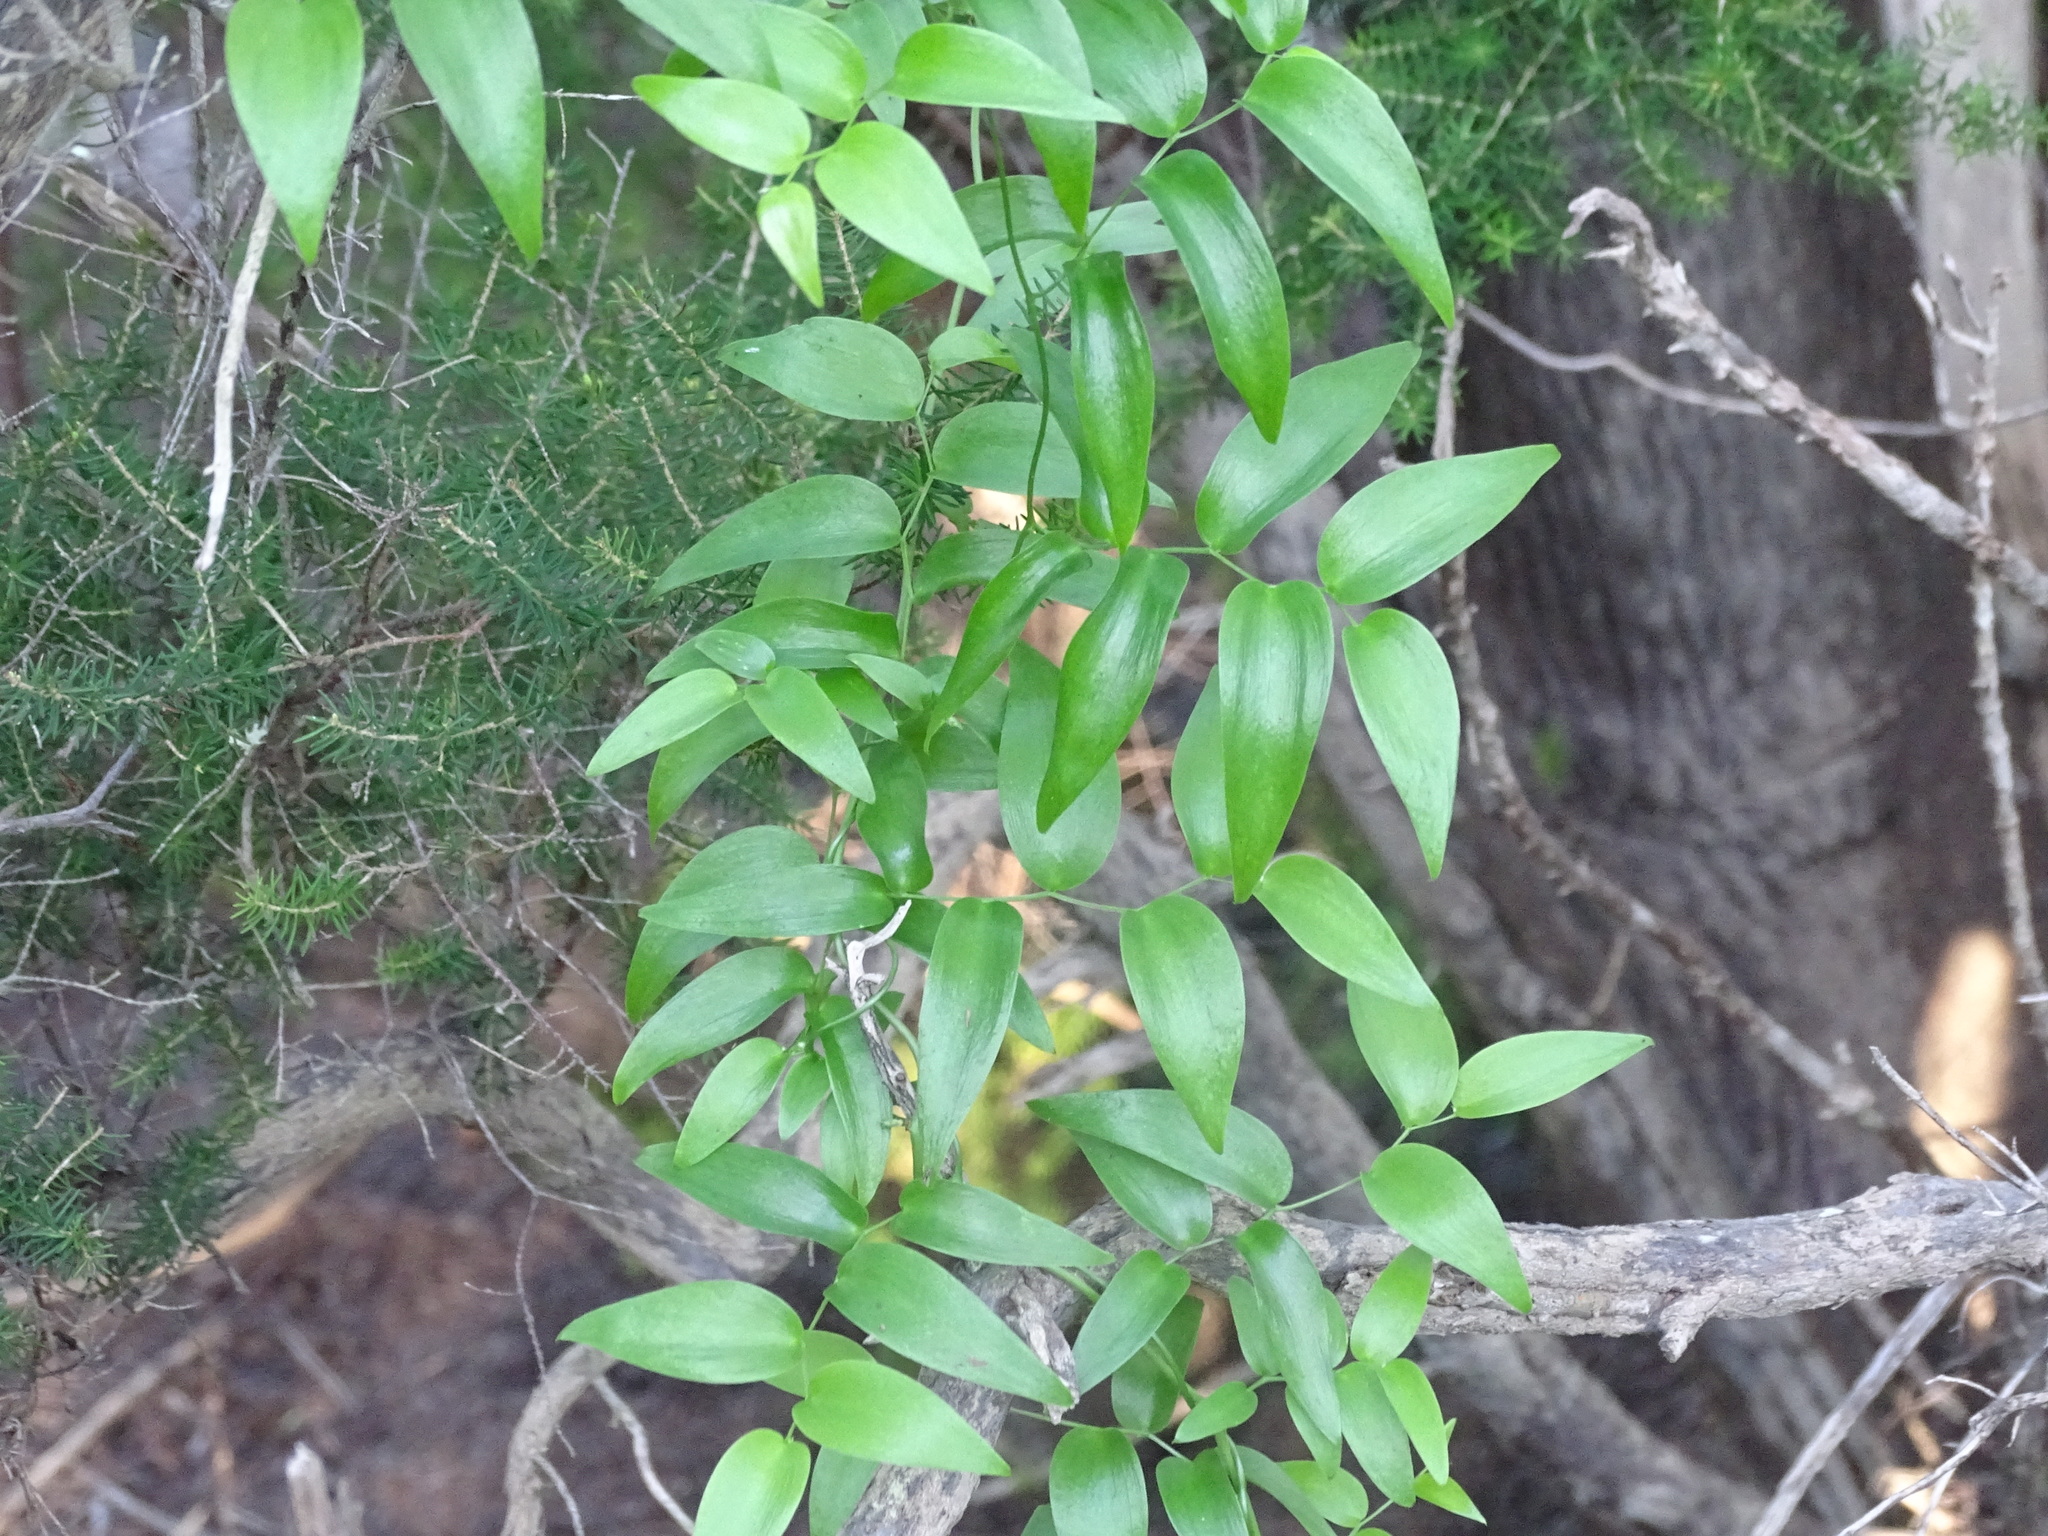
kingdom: Plantae
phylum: Tracheophyta
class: Liliopsida
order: Asparagales
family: Asparagaceae
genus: Asparagus
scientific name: Asparagus asparagoides
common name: African asparagus fern
